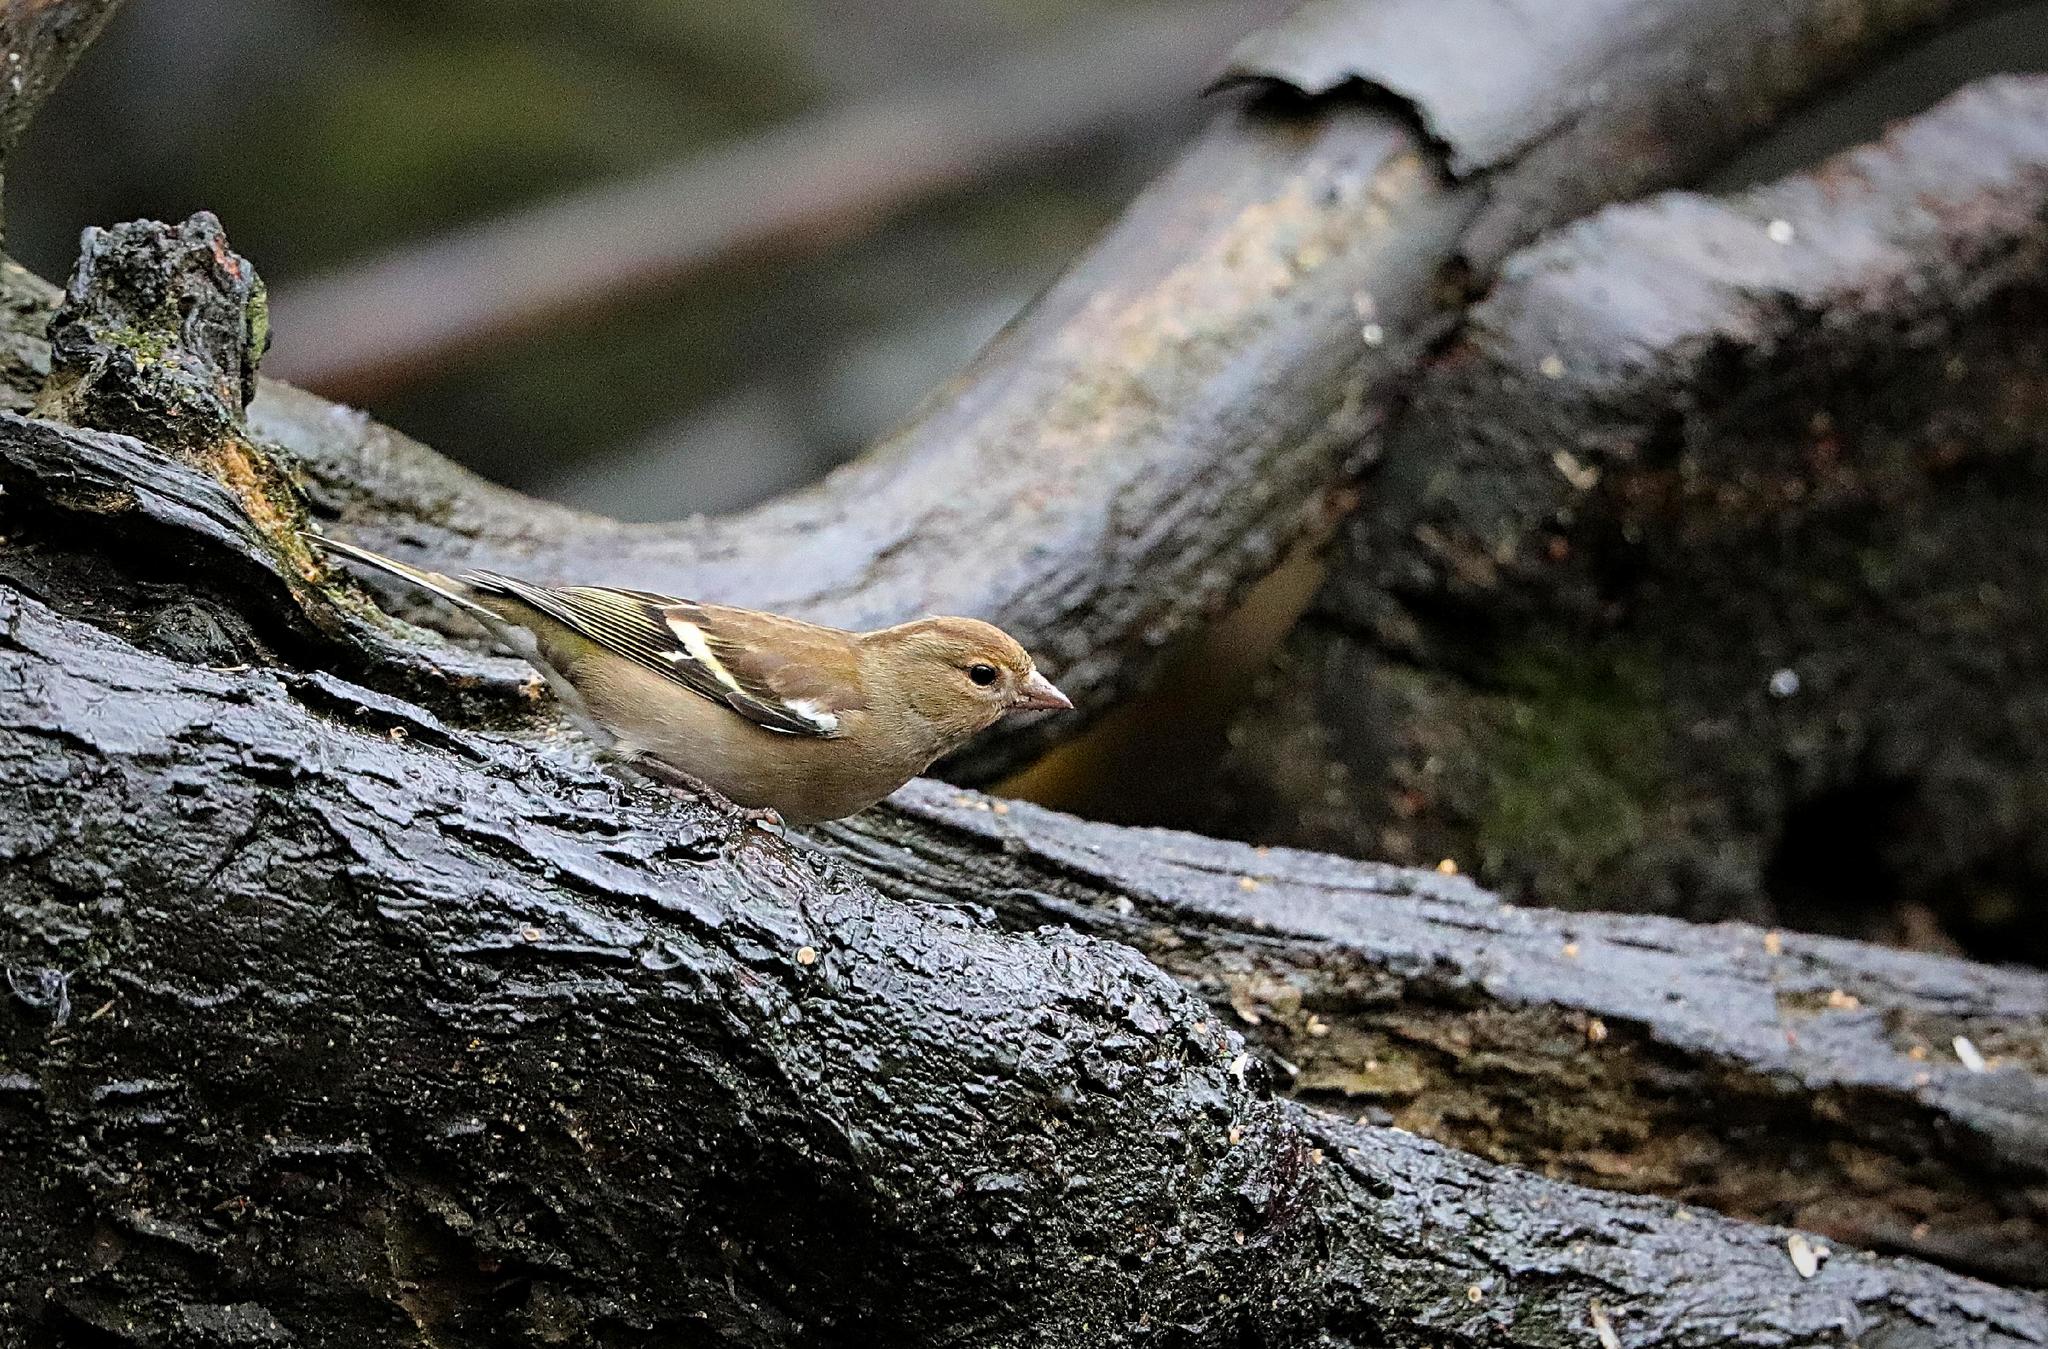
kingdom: Animalia
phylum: Chordata
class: Aves
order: Passeriformes
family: Fringillidae
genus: Fringilla
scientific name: Fringilla coelebs
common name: Common chaffinch
